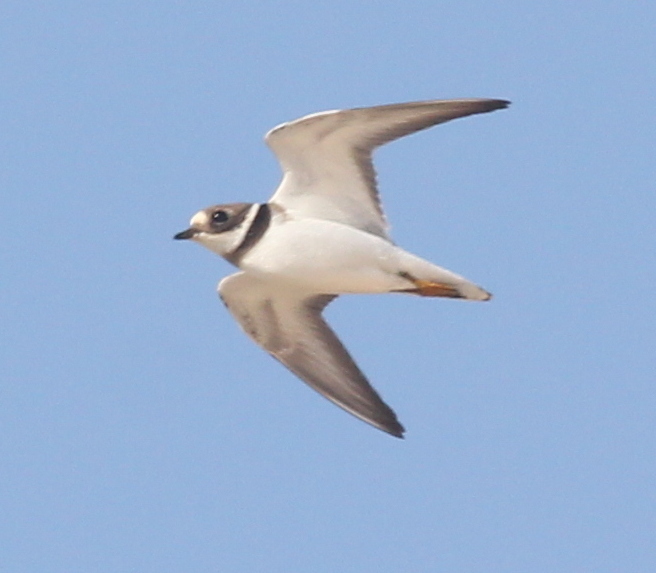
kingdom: Animalia
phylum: Chordata
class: Aves
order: Charadriiformes
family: Charadriidae
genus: Charadrius
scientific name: Charadrius hiaticula
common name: Common ringed plover
